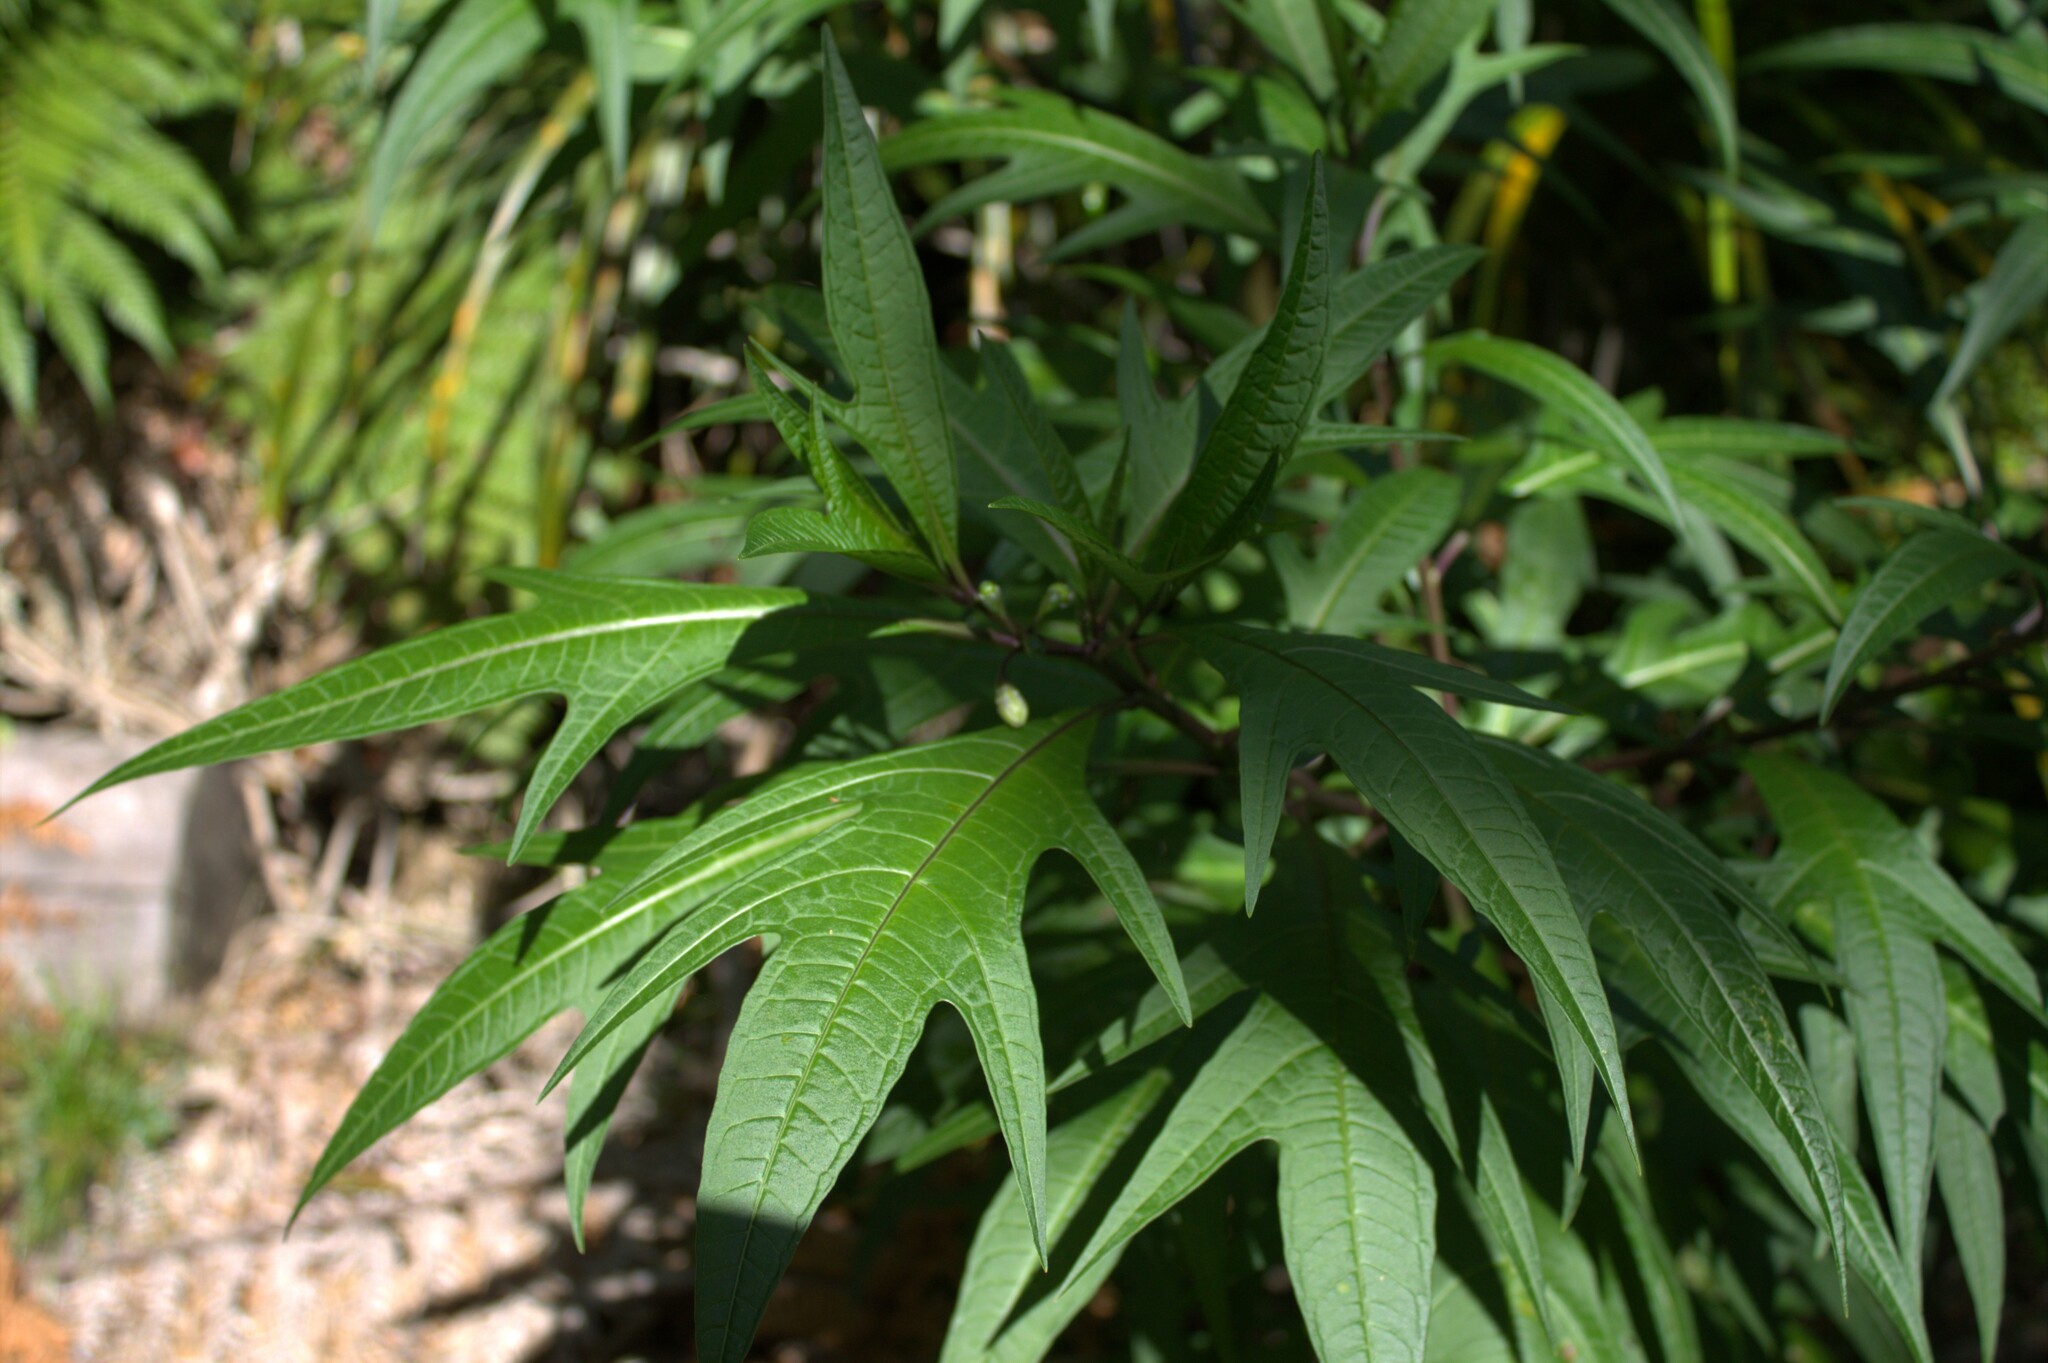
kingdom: Plantae
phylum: Tracheophyta
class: Magnoliopsida
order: Solanales
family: Solanaceae
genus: Solanum
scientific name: Solanum aviculare
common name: New zealand nightshade
